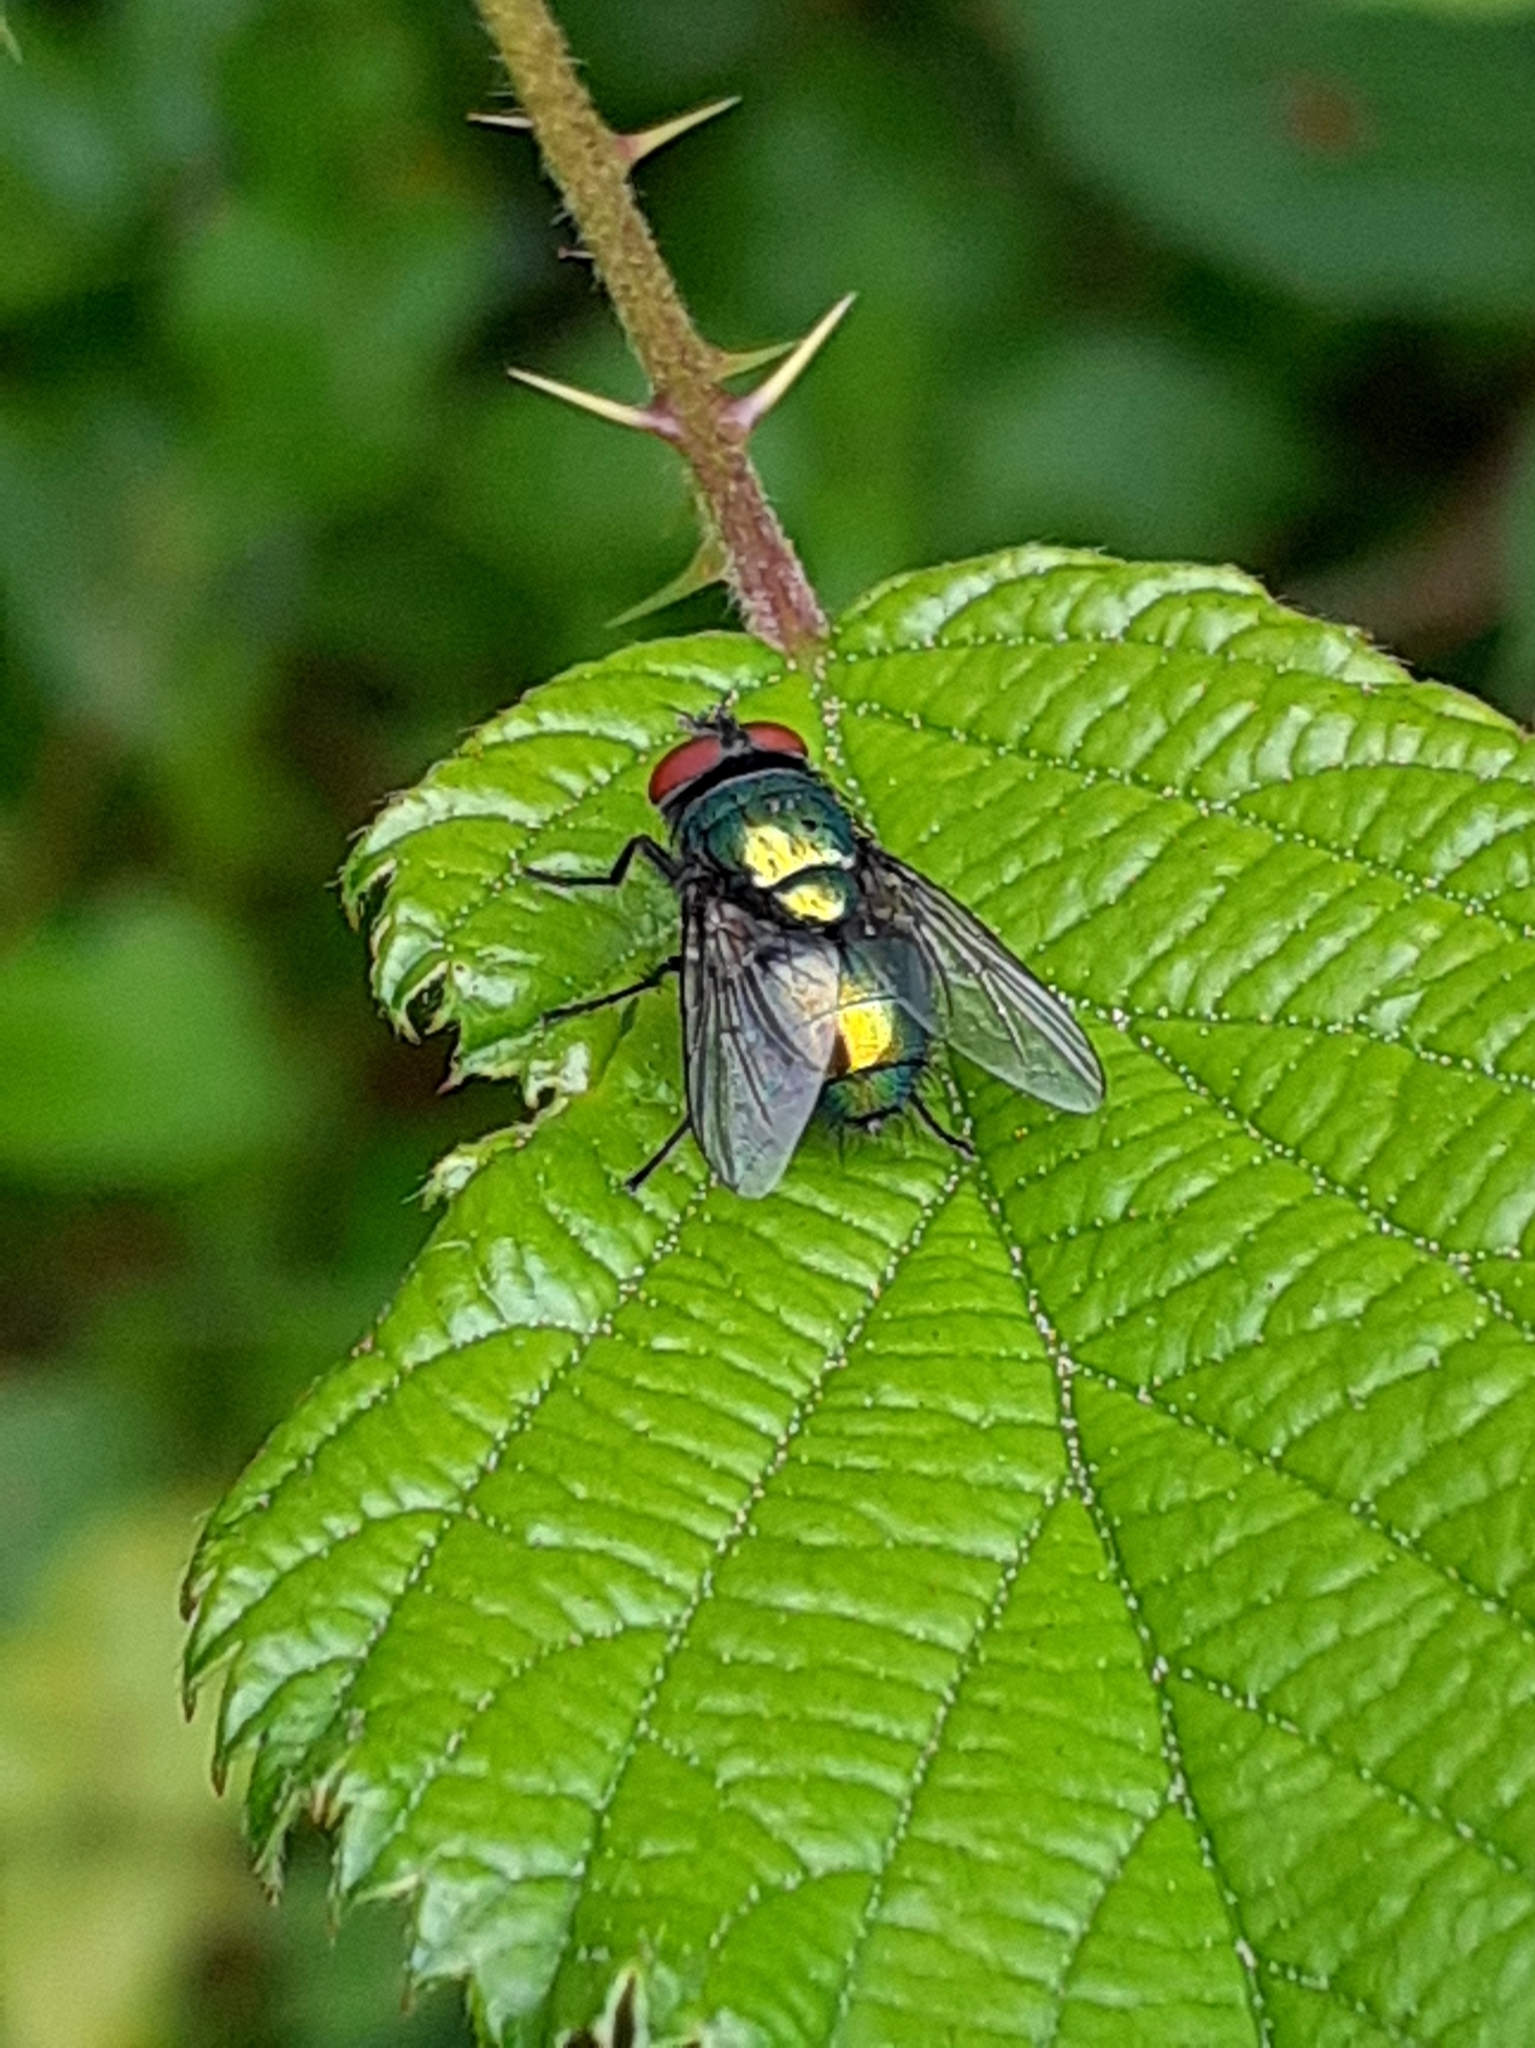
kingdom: Animalia
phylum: Arthropoda
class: Insecta
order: Diptera
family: Calliphoridae
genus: Lucilia
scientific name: Lucilia
